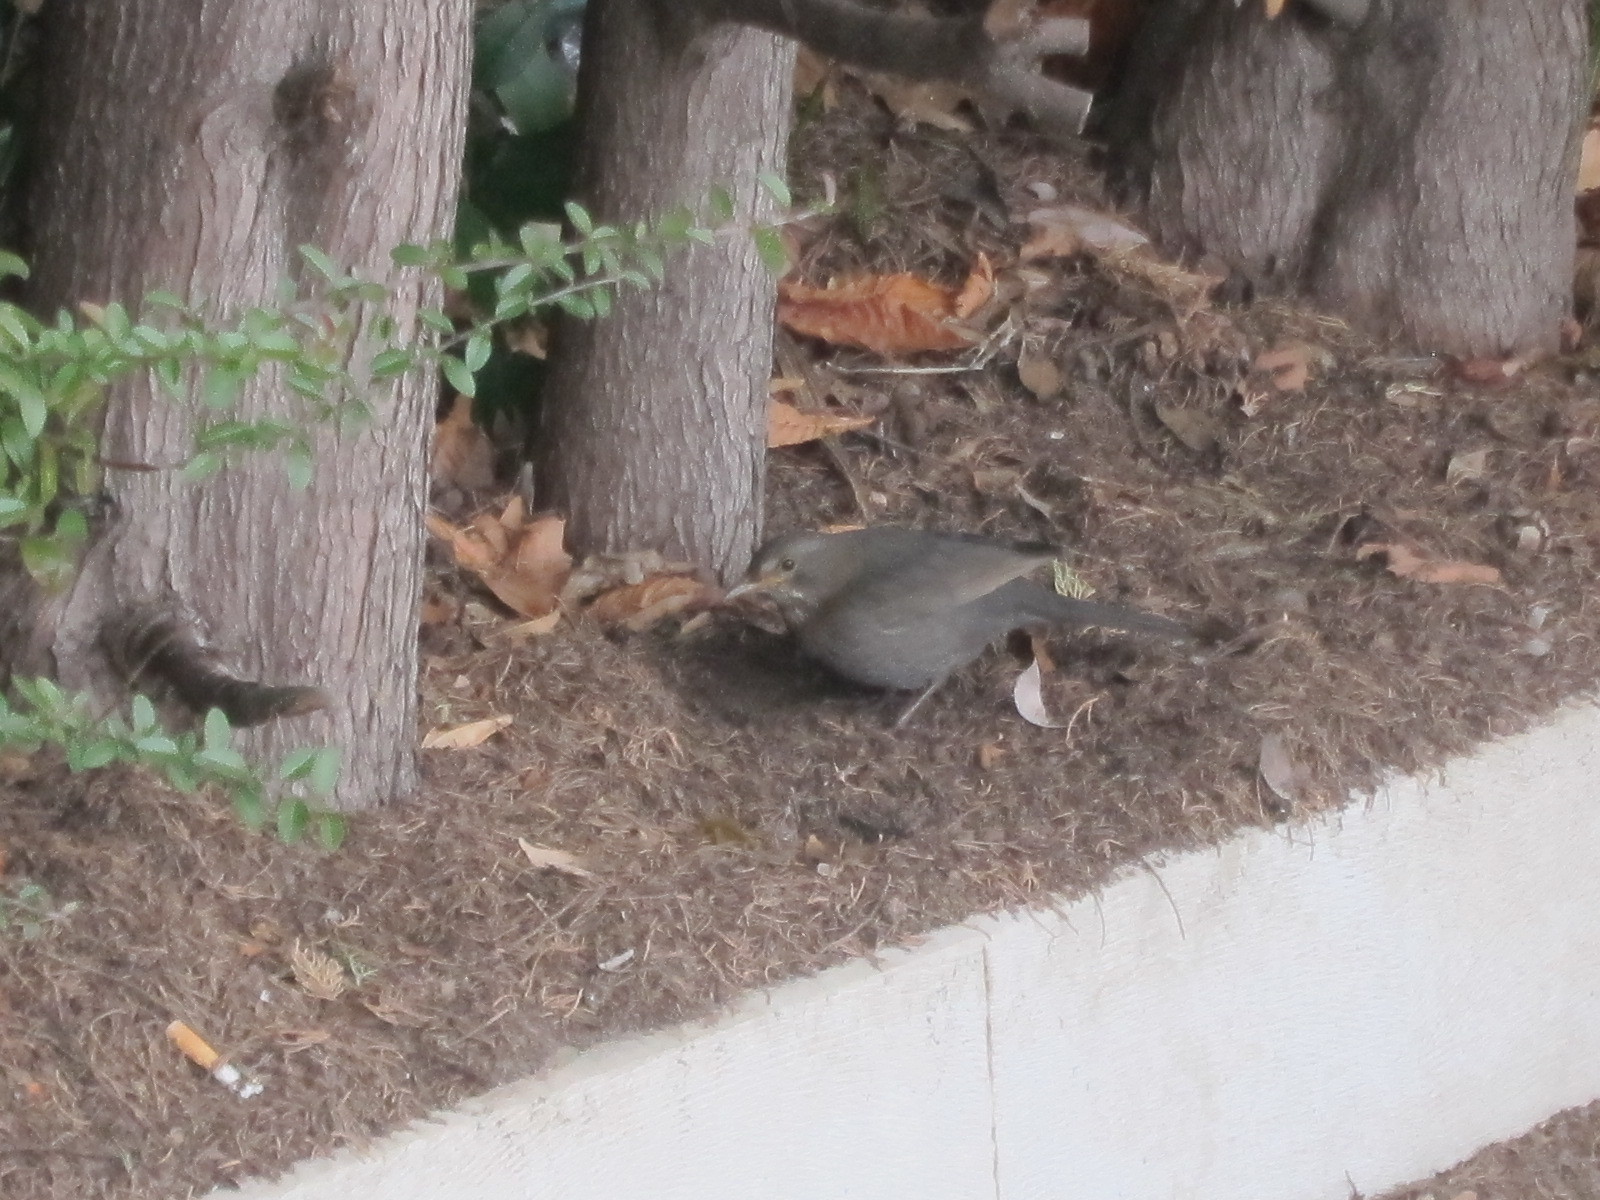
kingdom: Animalia
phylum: Chordata
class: Aves
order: Passeriformes
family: Turdidae
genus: Turdus
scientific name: Turdus merula
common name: Common blackbird
